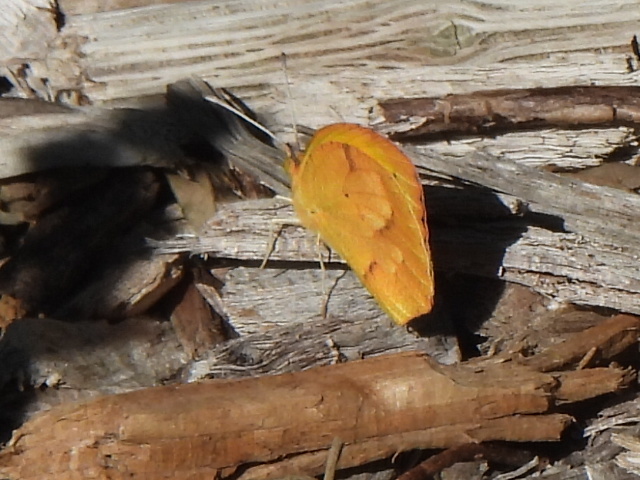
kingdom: Animalia
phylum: Arthropoda
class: Insecta
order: Lepidoptera
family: Pieridae
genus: Abaeis
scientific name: Abaeis nicippe
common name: Sleepy orange
